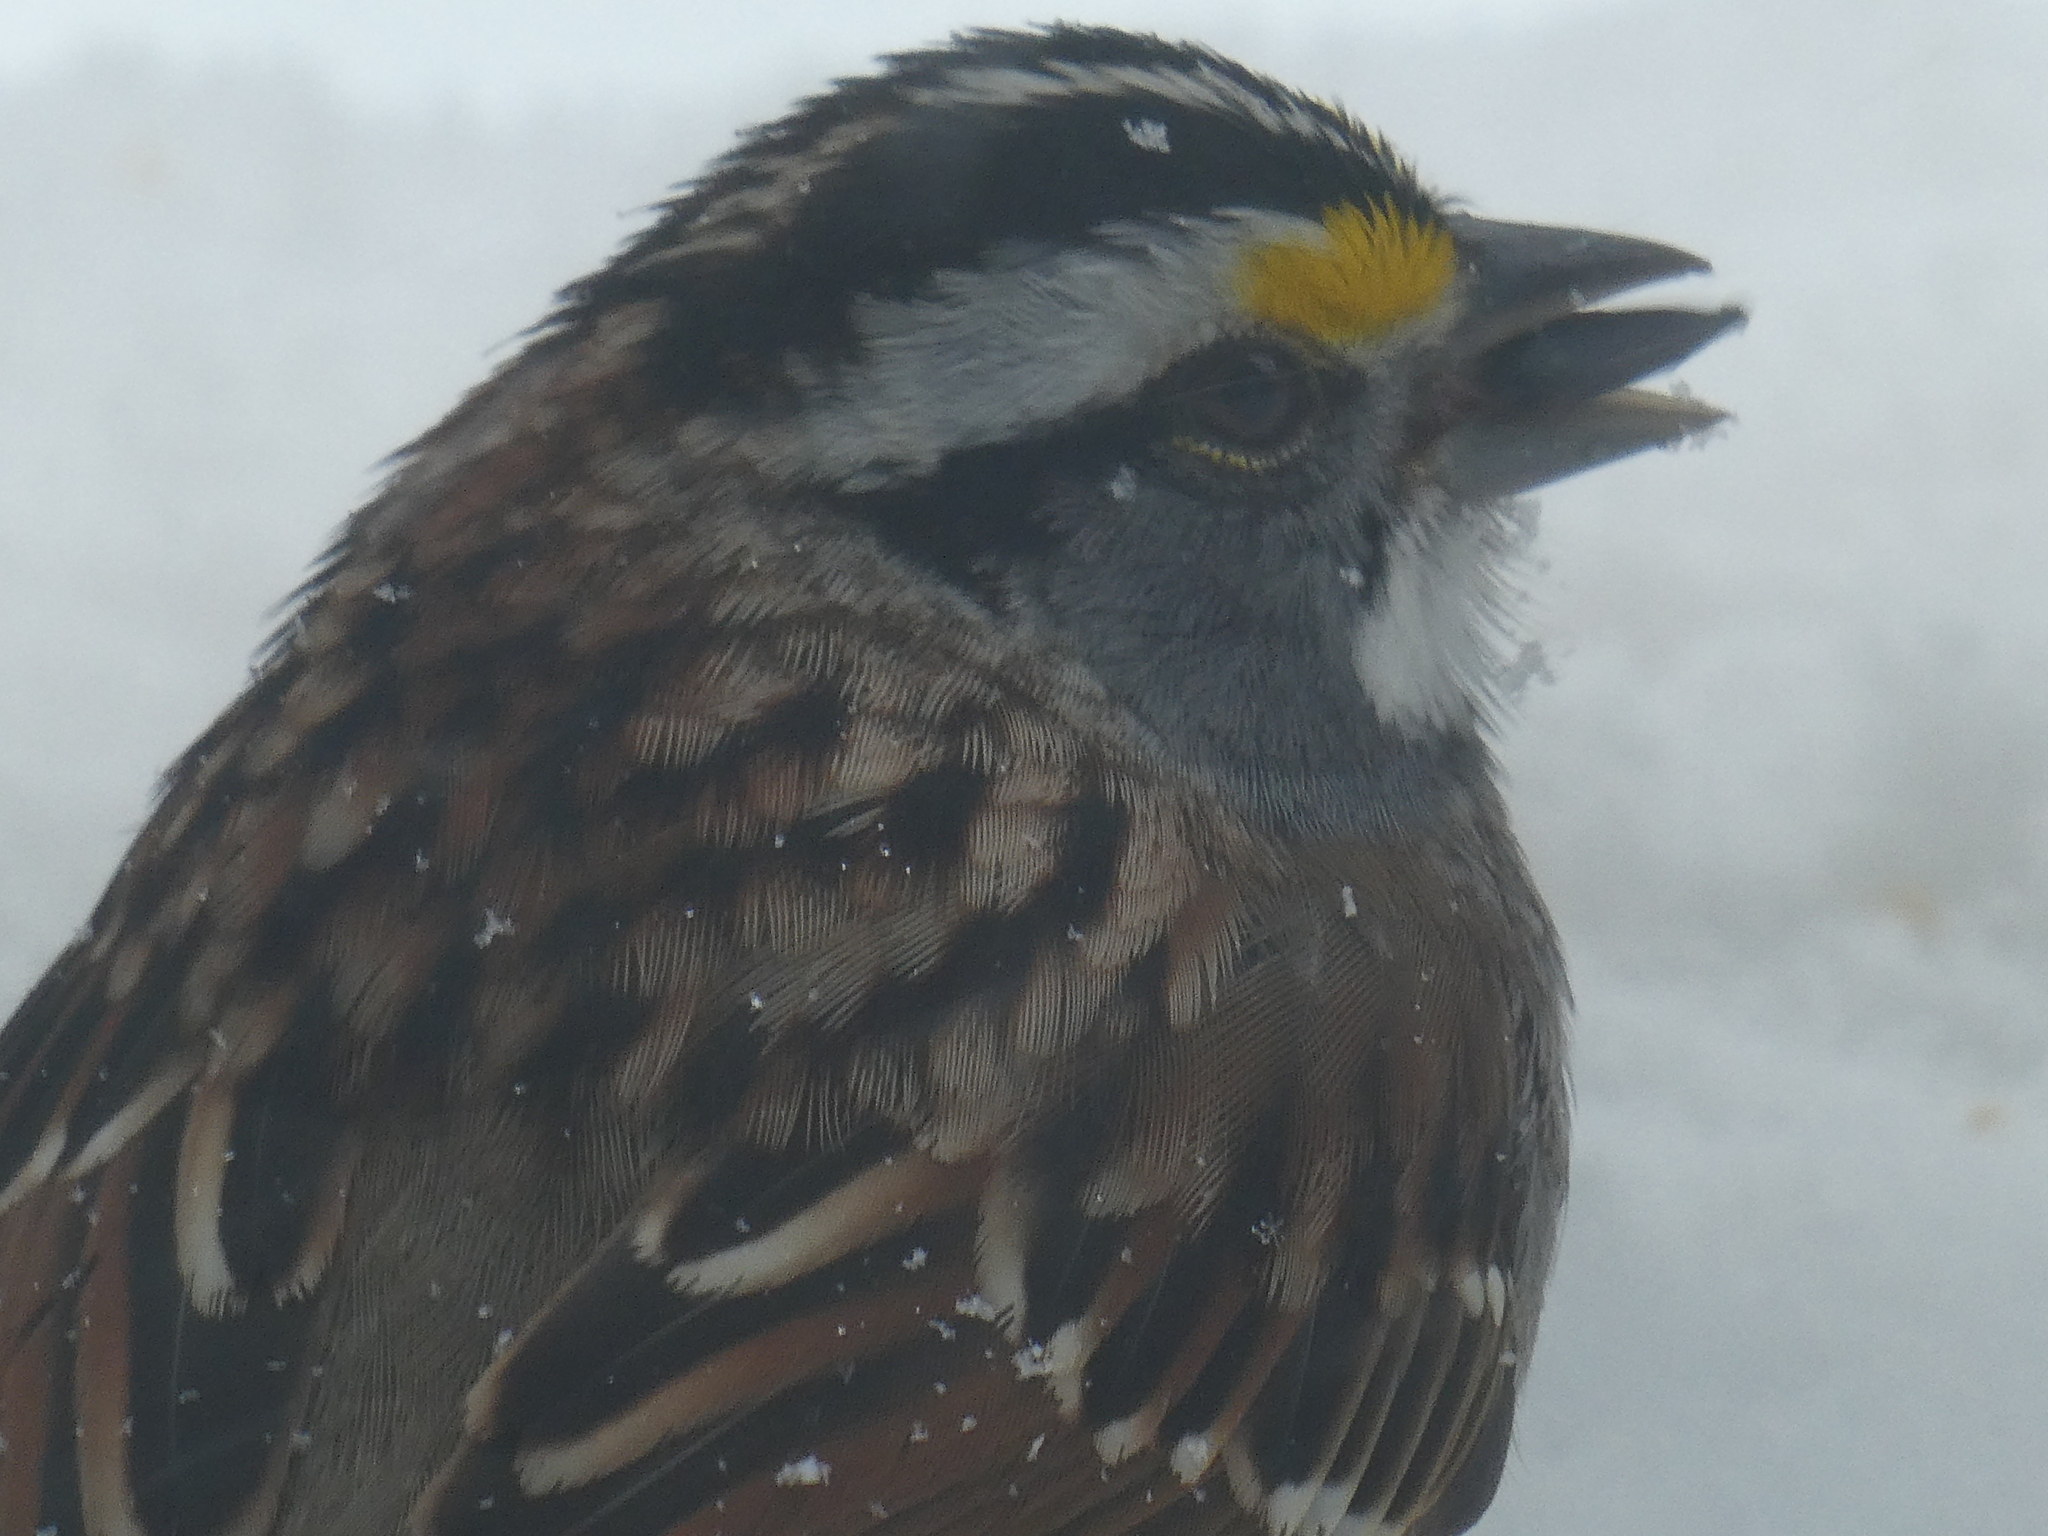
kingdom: Animalia
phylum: Chordata
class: Aves
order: Passeriformes
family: Passerellidae
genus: Zonotrichia
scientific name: Zonotrichia albicollis
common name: White-throated sparrow
